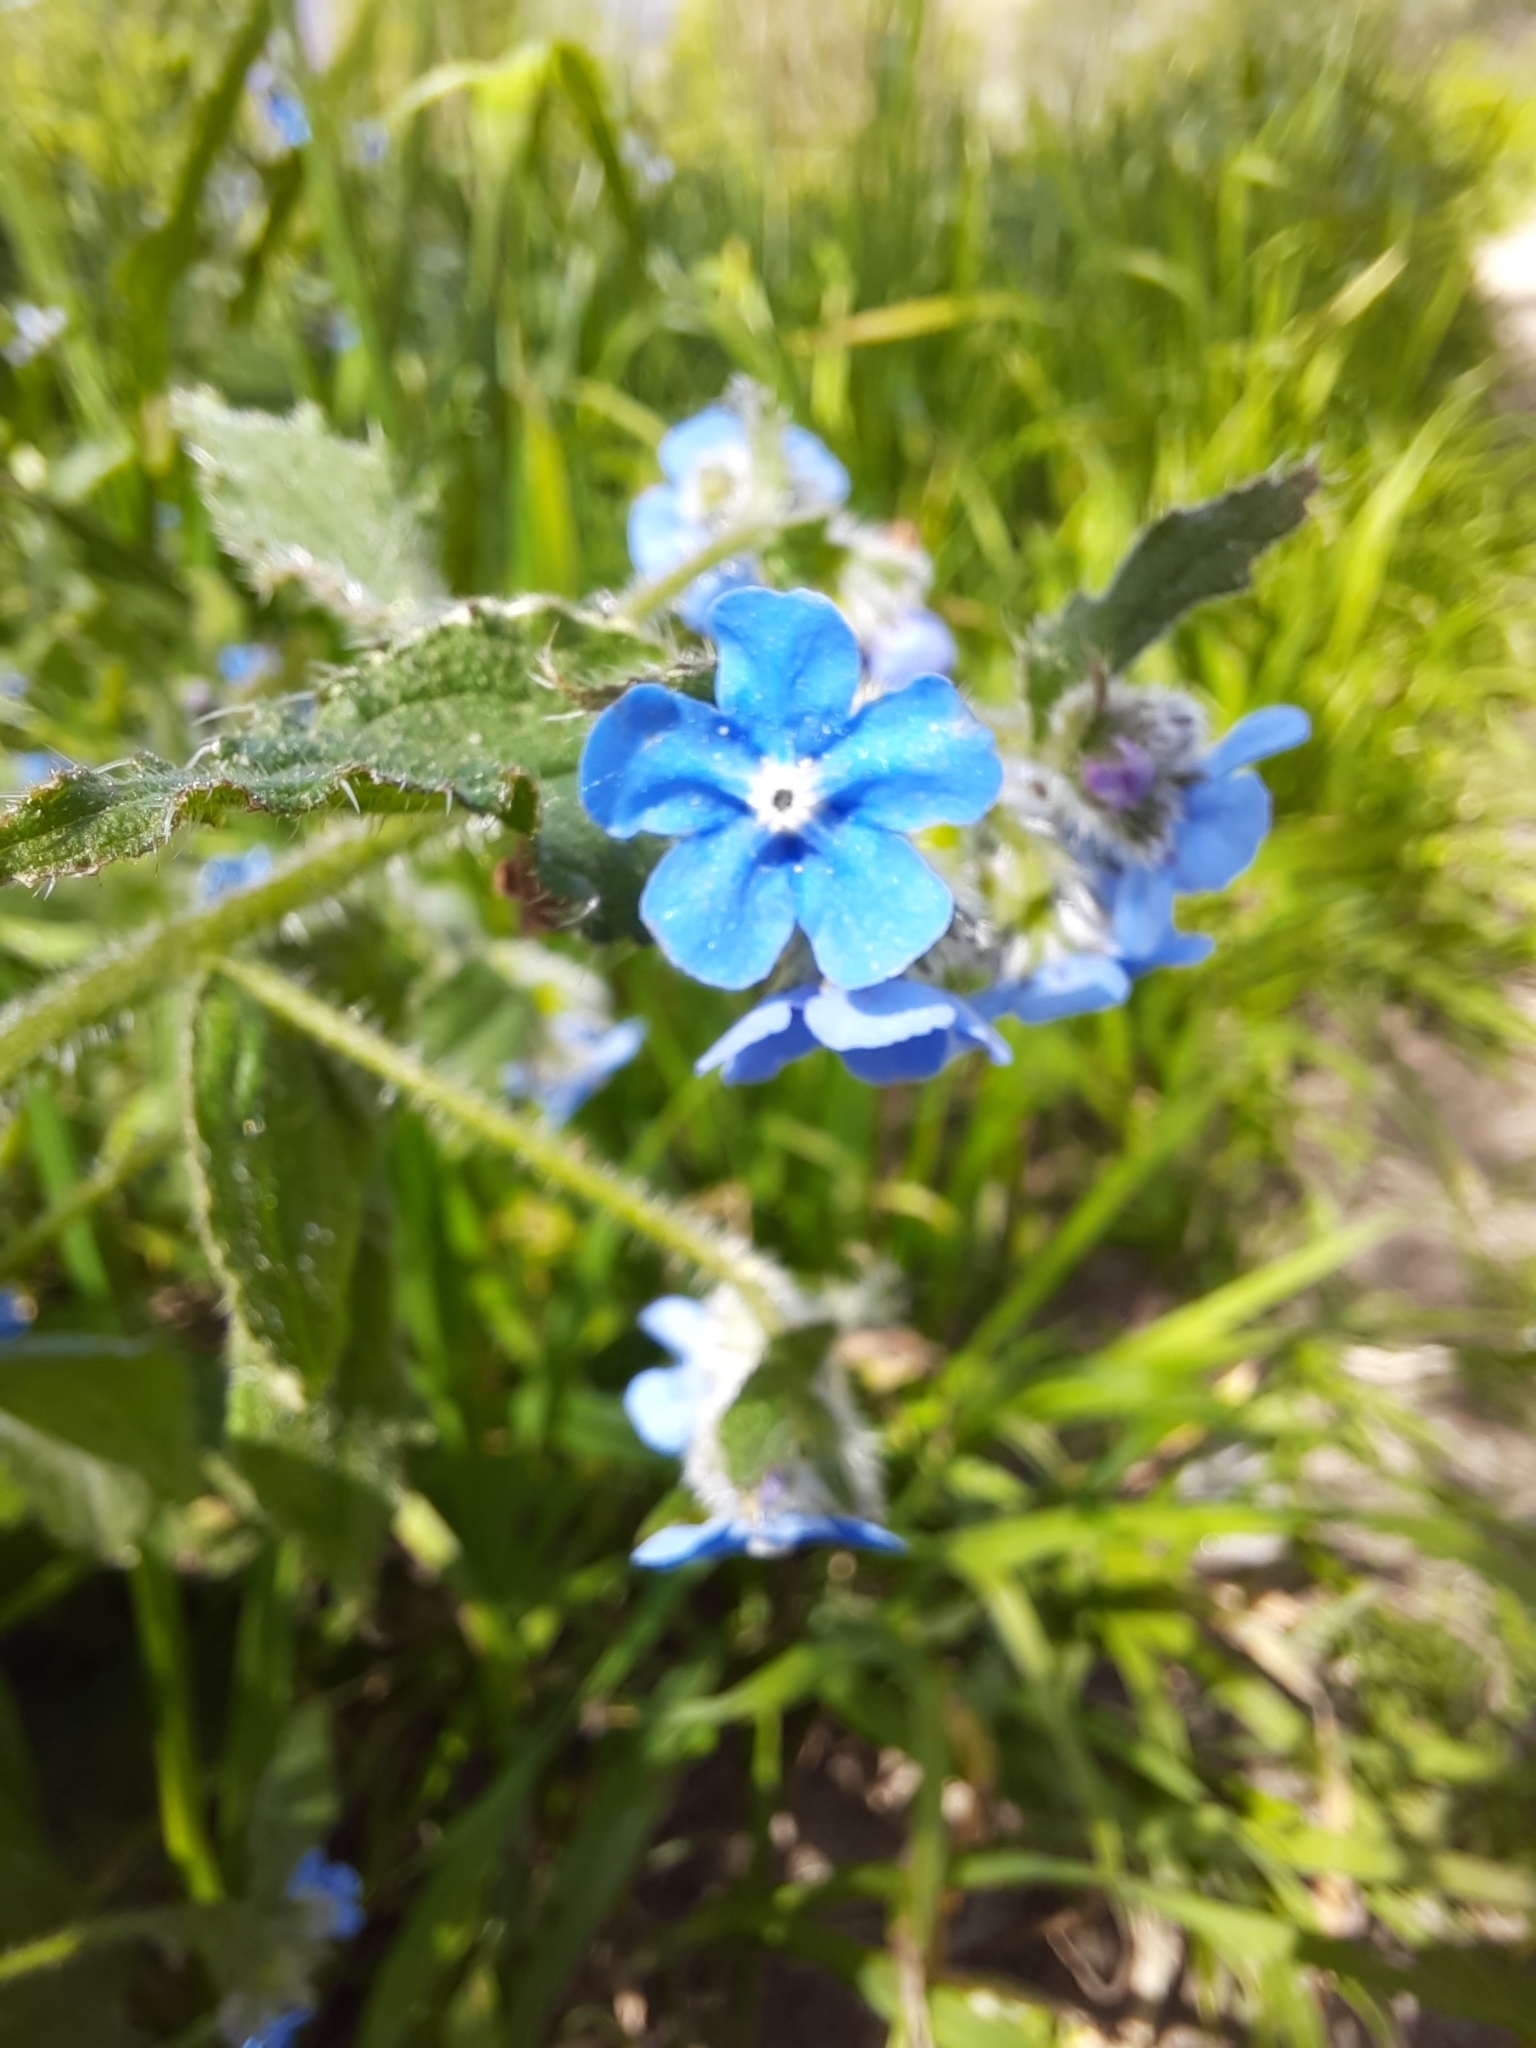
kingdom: Plantae
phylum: Tracheophyta
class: Magnoliopsida
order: Boraginales
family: Boraginaceae
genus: Pentaglottis
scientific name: Pentaglottis sempervirens
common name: Green alkanet
